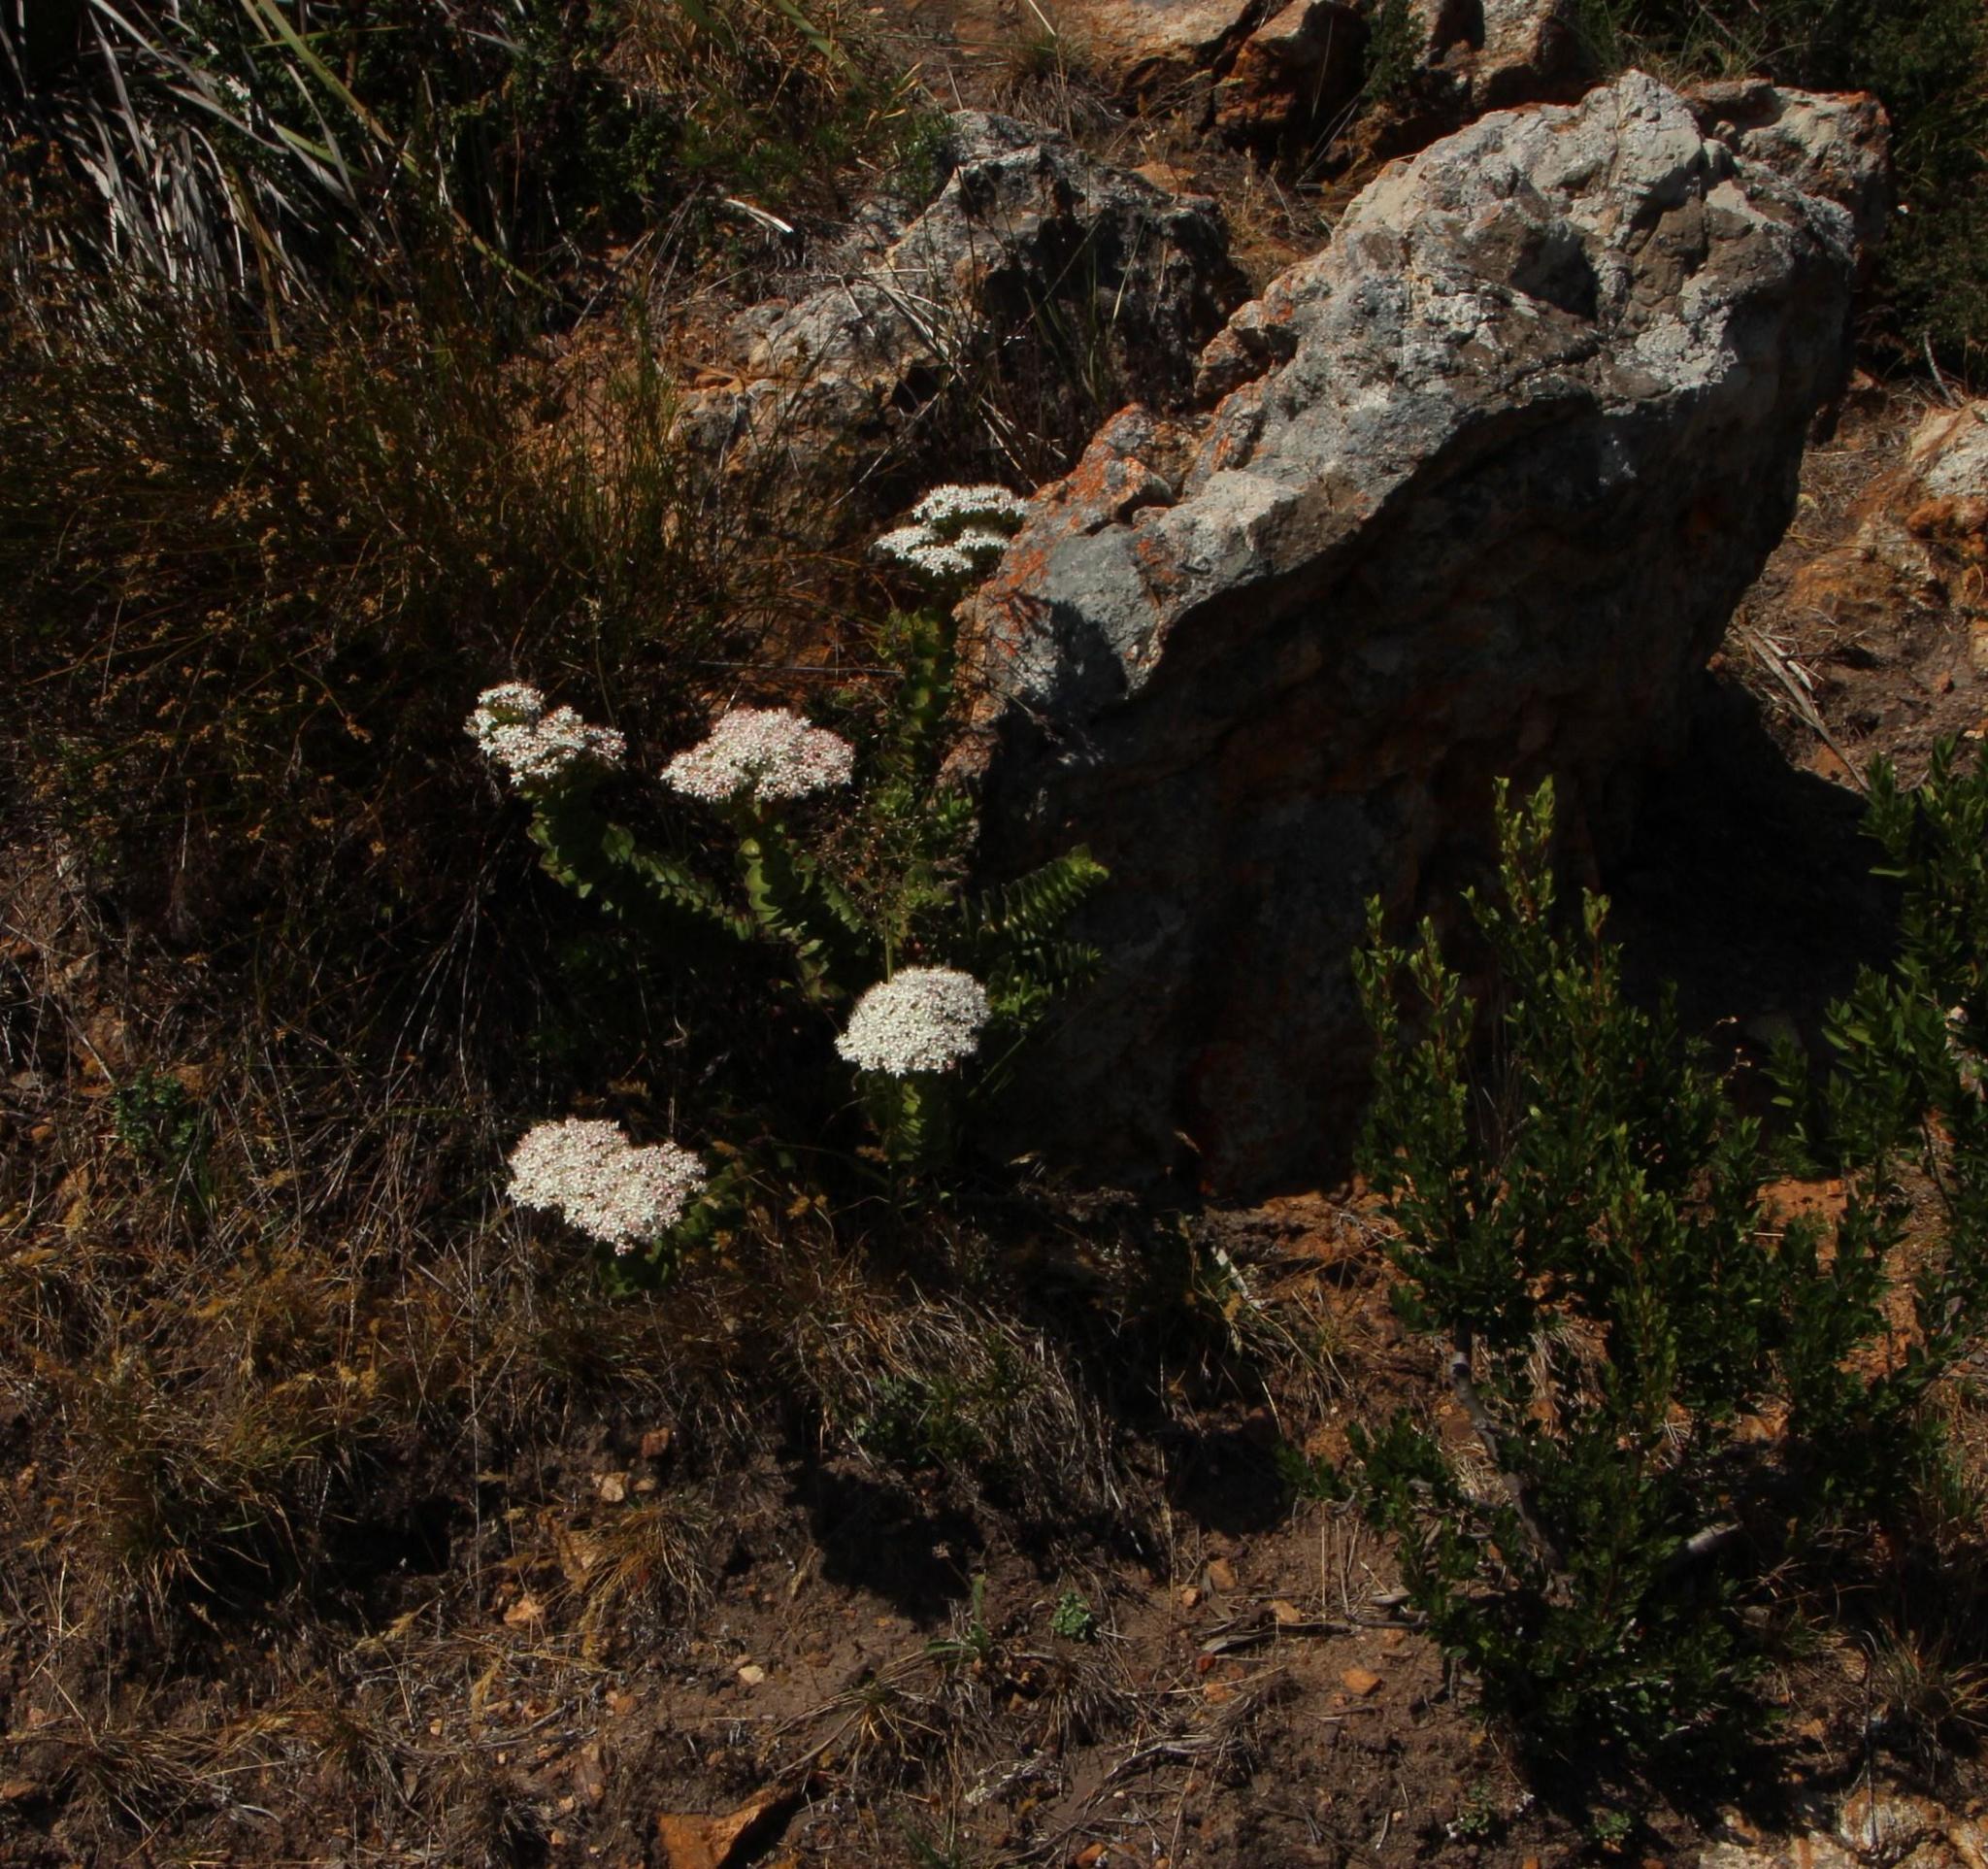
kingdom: Plantae
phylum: Tracheophyta
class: Magnoliopsida
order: Saxifragales
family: Crassulaceae
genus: Crassula
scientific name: Crassula undulata
